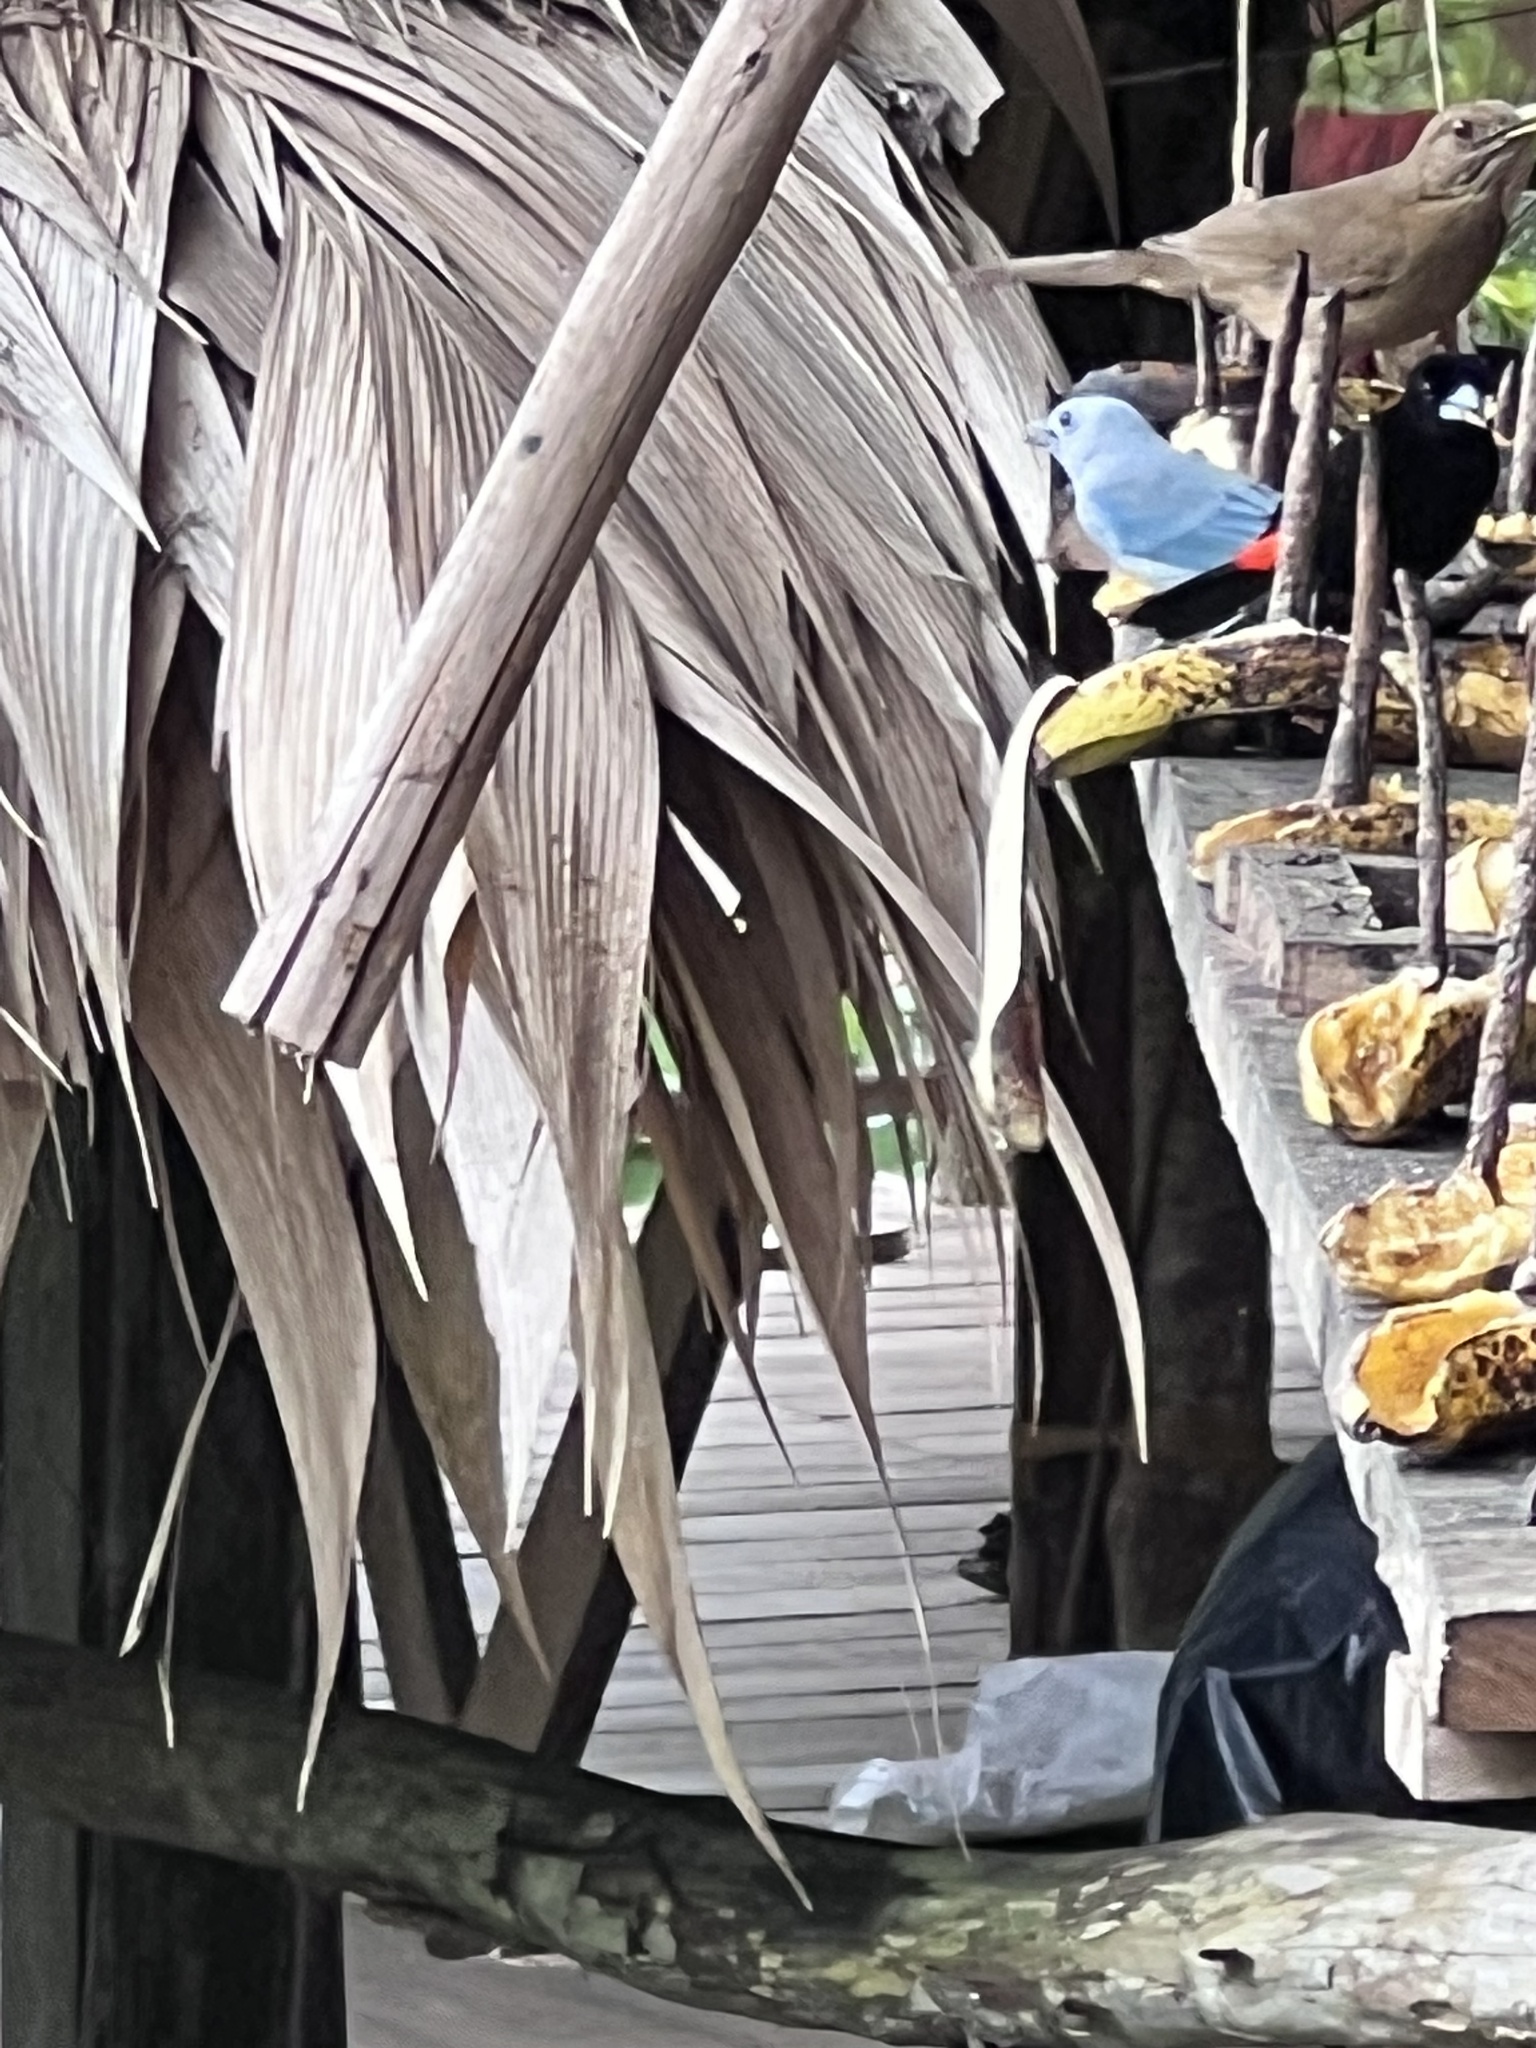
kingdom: Animalia
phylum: Chordata
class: Aves
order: Passeriformes
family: Thraupidae
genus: Thraupis
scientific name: Thraupis episcopus
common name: Blue-grey tanager
